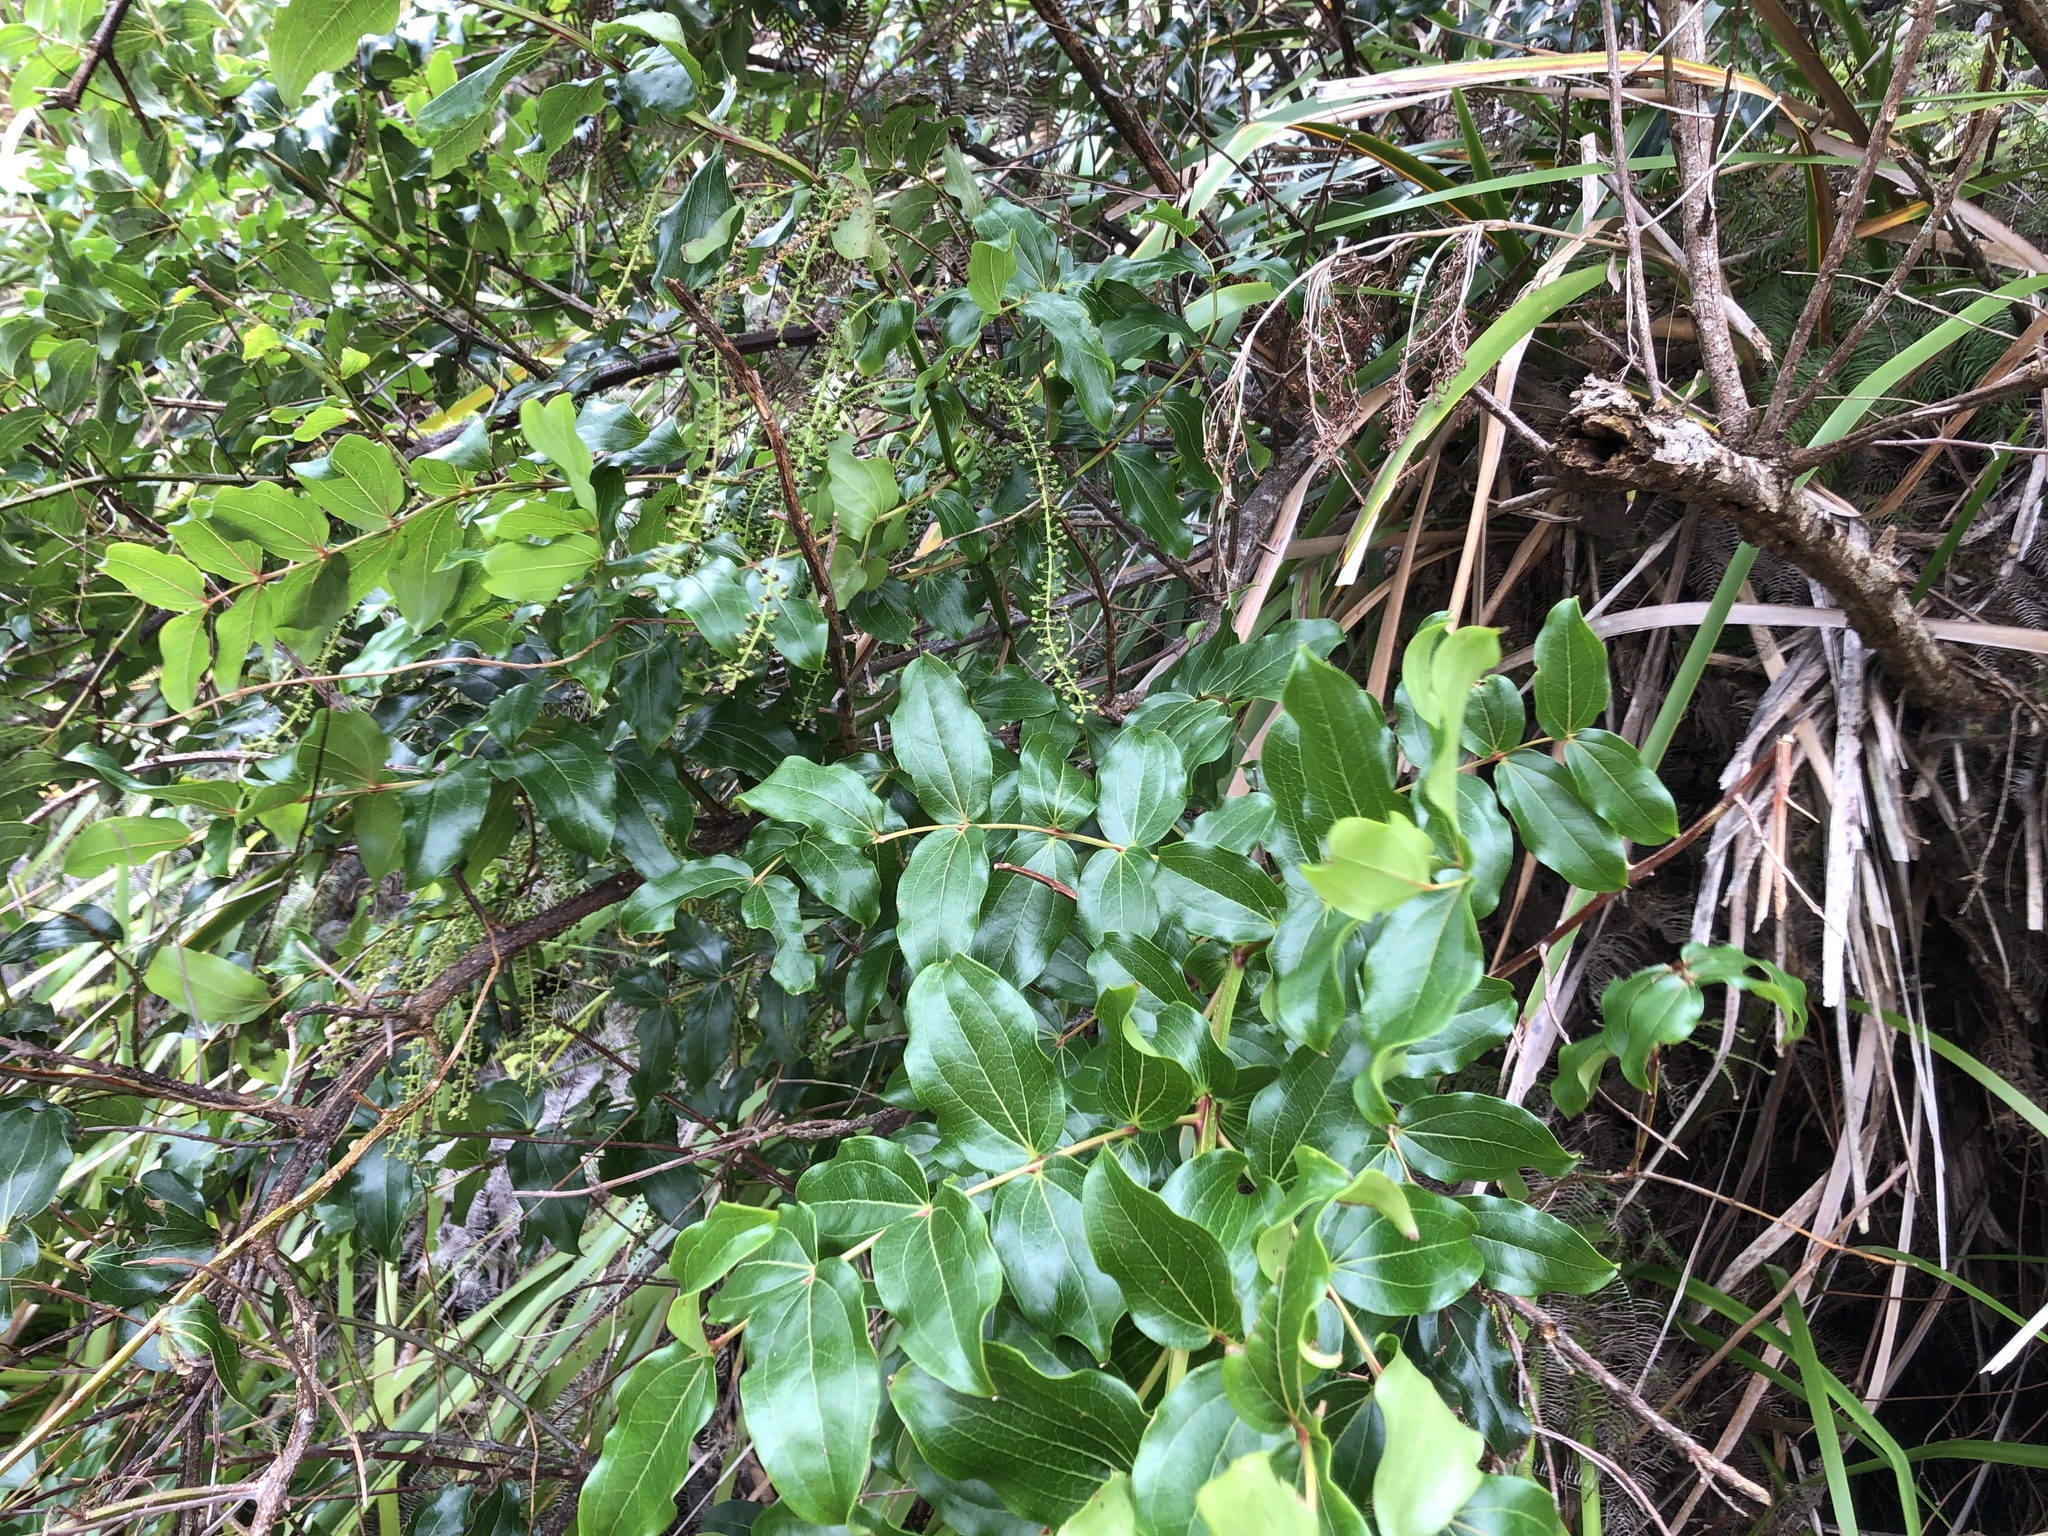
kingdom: Plantae
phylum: Tracheophyta
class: Magnoliopsida
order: Cucurbitales
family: Coriariaceae
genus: Coriaria
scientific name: Coriaria arborea
